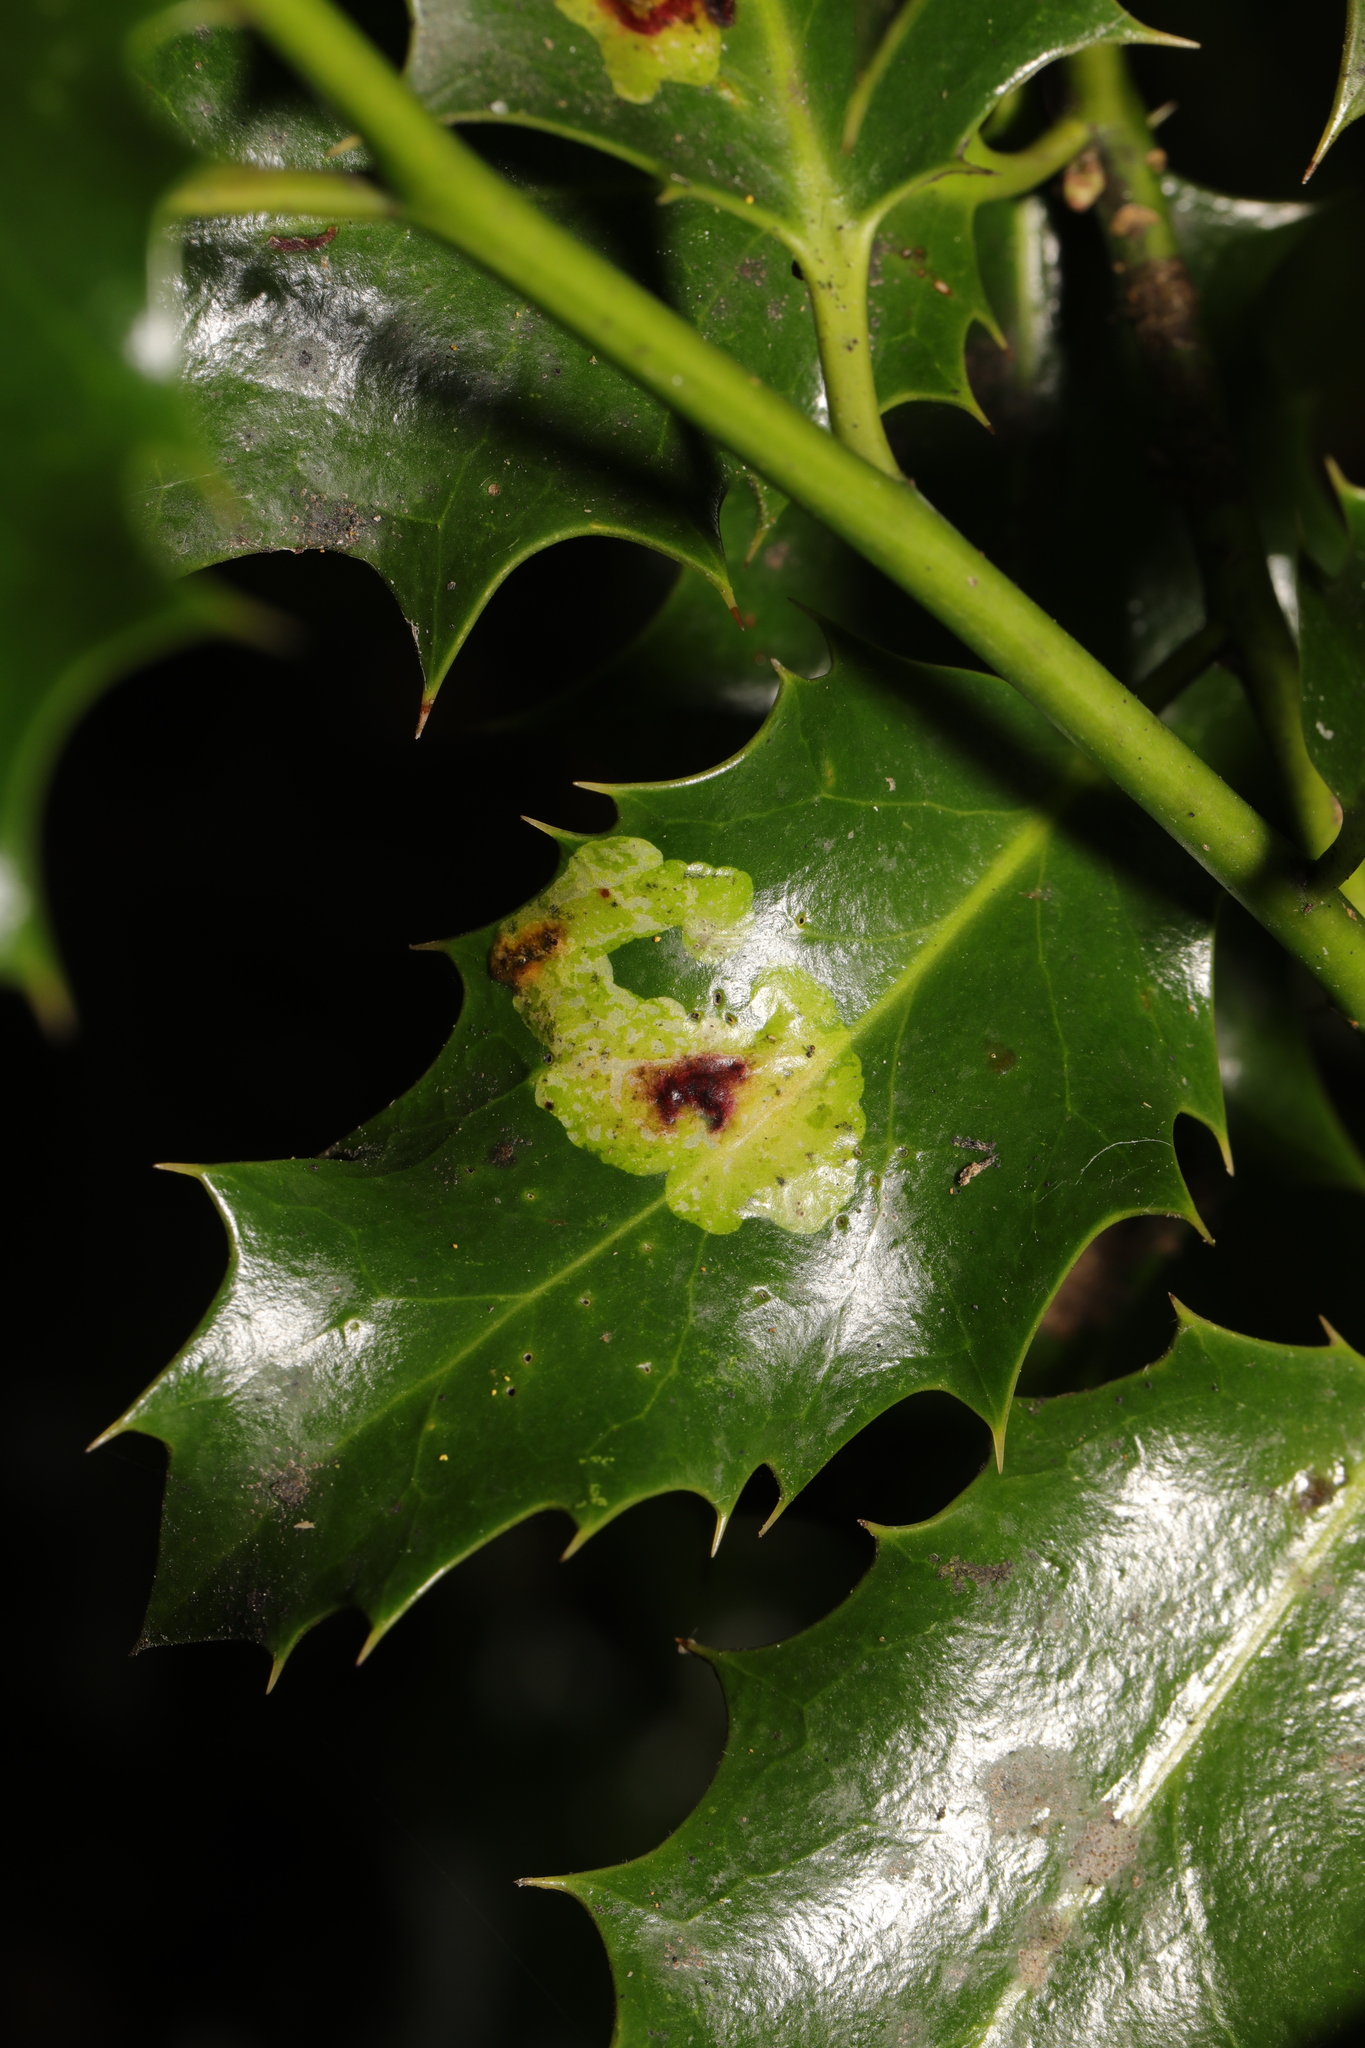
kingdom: Animalia
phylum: Arthropoda
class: Insecta
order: Diptera
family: Agromyzidae
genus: Phytomyza
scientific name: Phytomyza ilicis
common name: Holly leafminer
